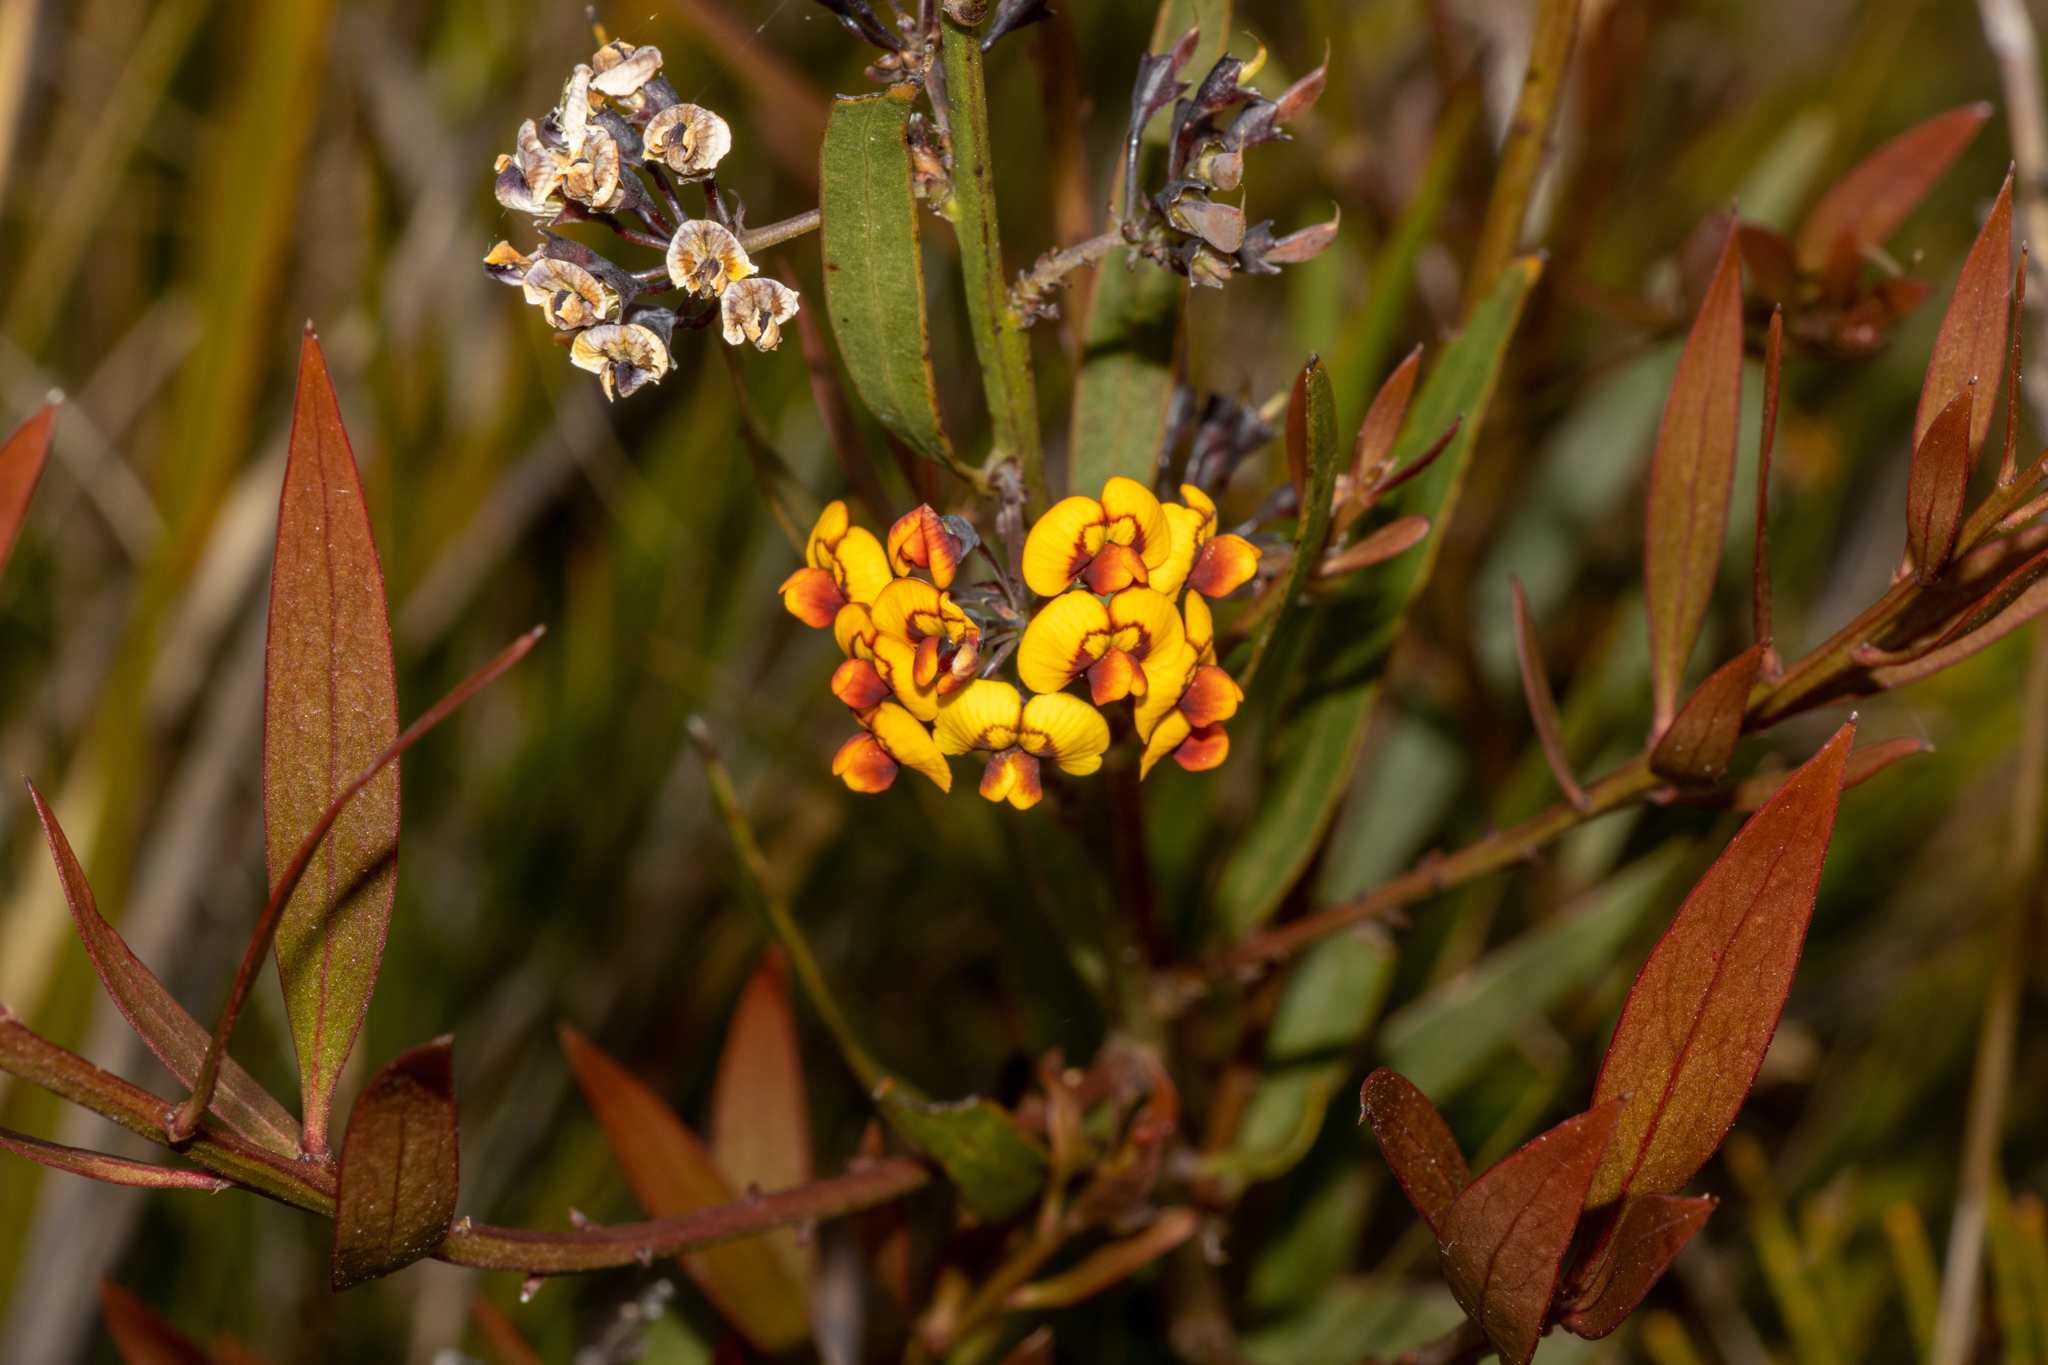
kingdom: Plantae
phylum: Tracheophyta
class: Magnoliopsida
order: Fabales
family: Fabaceae
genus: Daviesia
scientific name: Daviesia corymbosa
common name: Narrow-leaf bitter-pea
